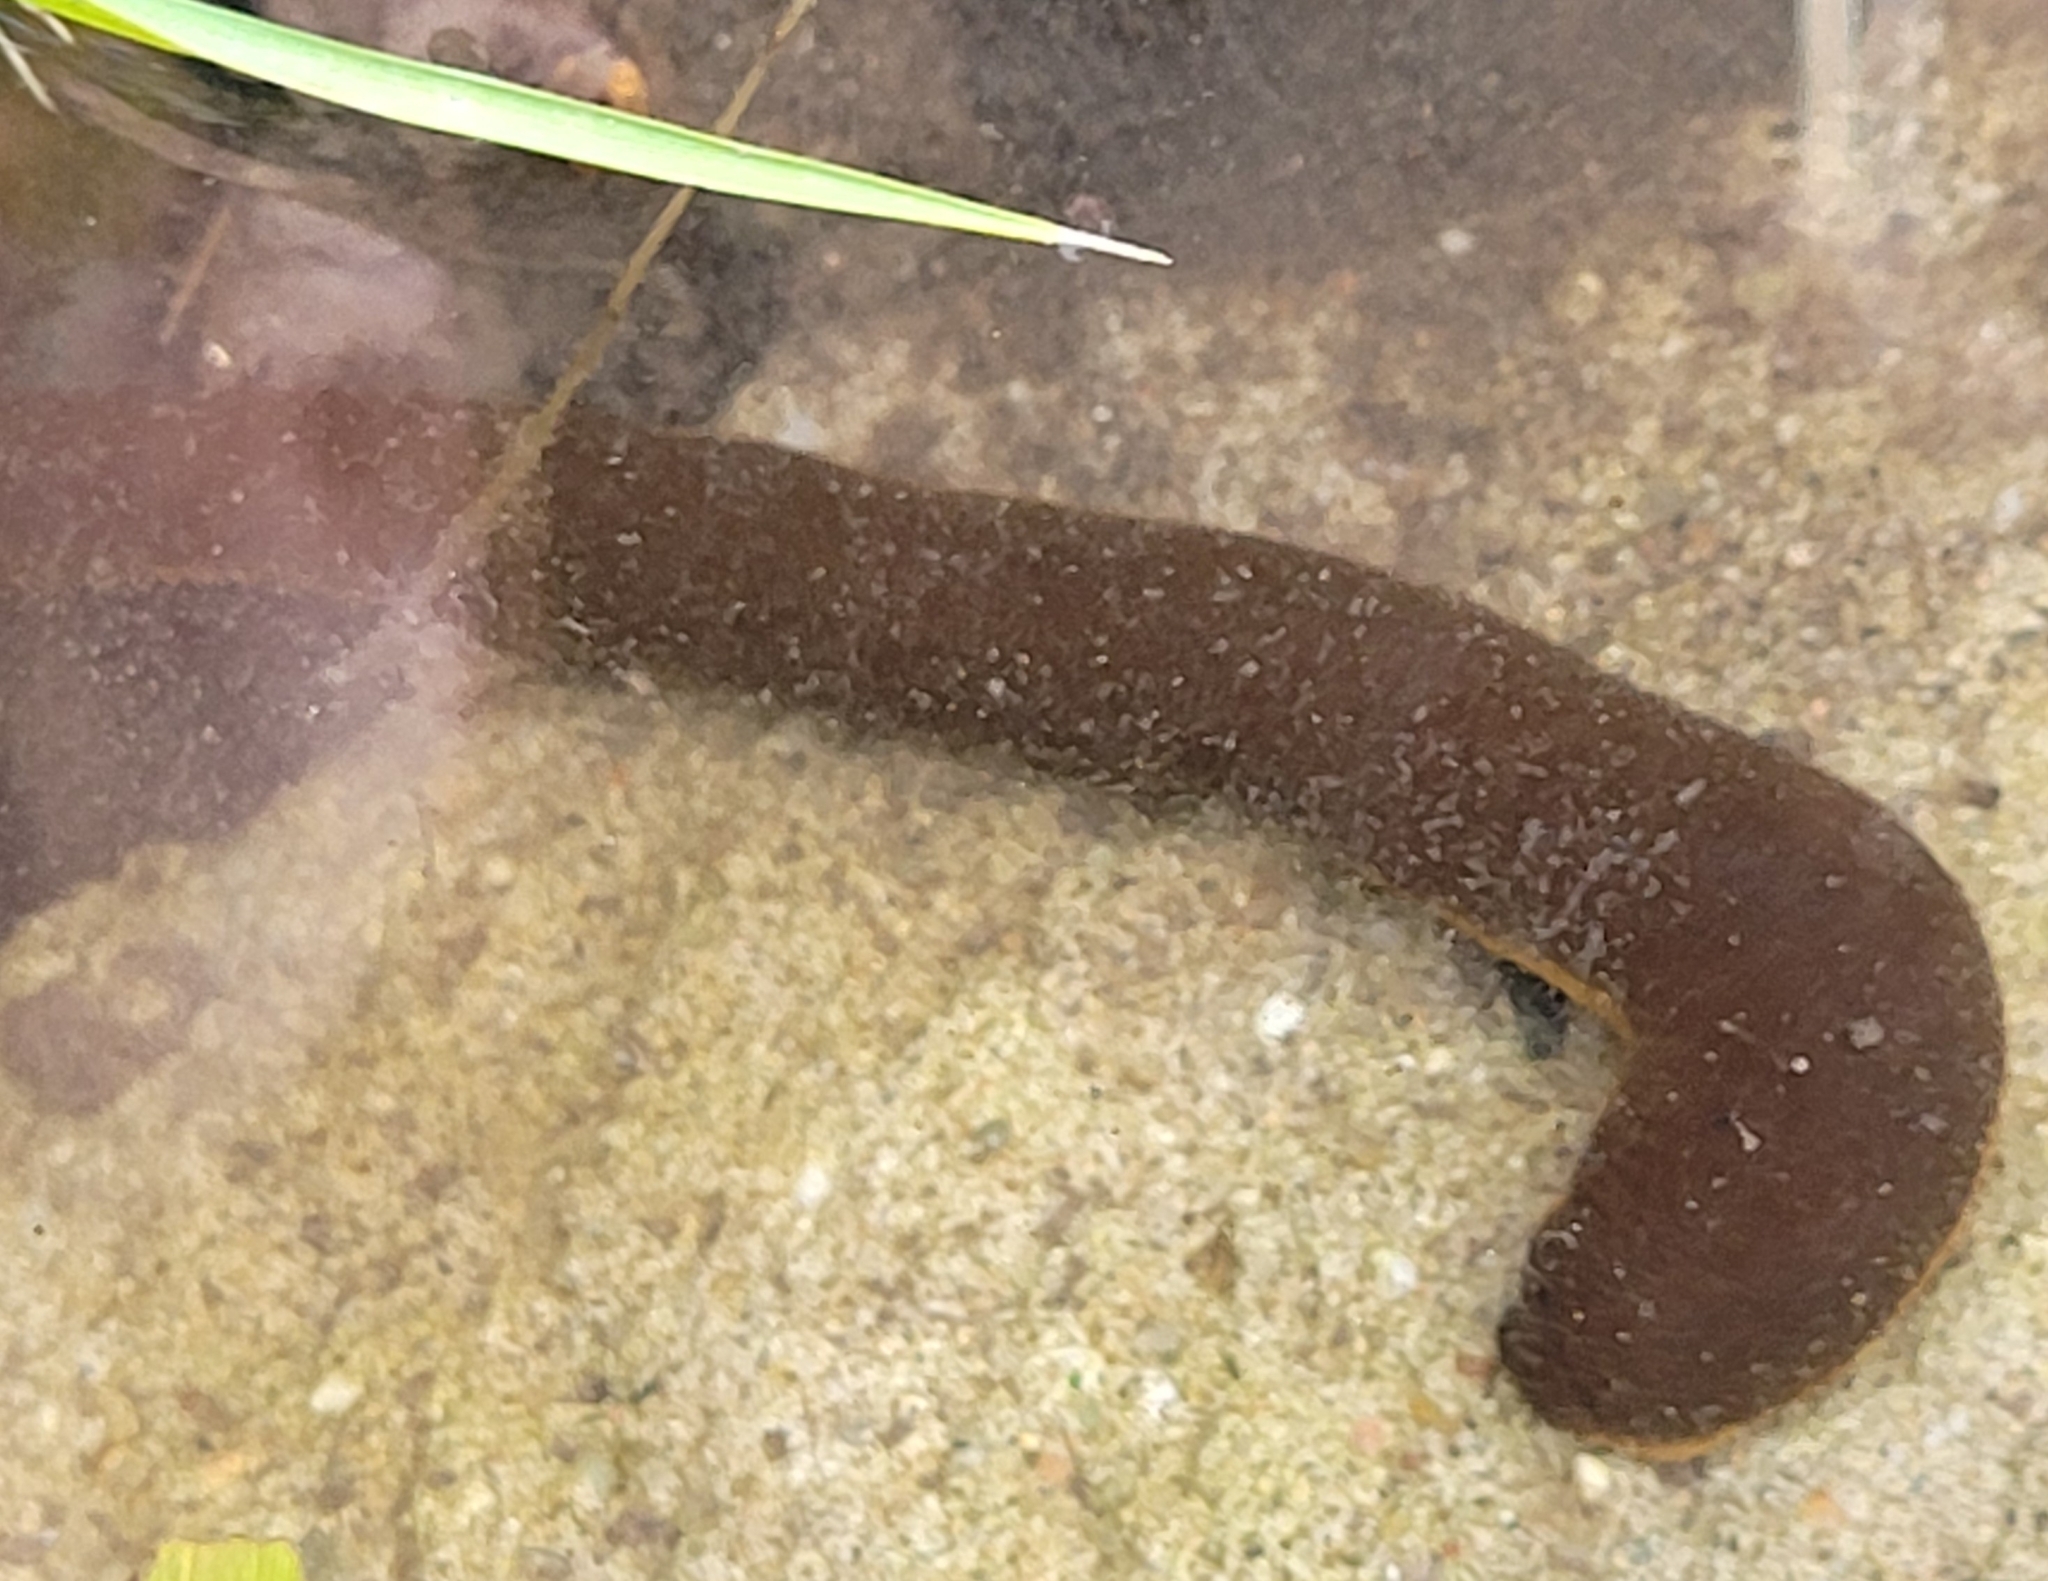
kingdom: Animalia
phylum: Annelida
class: Clitellata
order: Arhynchobdellida
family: Haemopidae
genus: Haemopis
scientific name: Haemopis sanguisuga
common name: Horse leech
